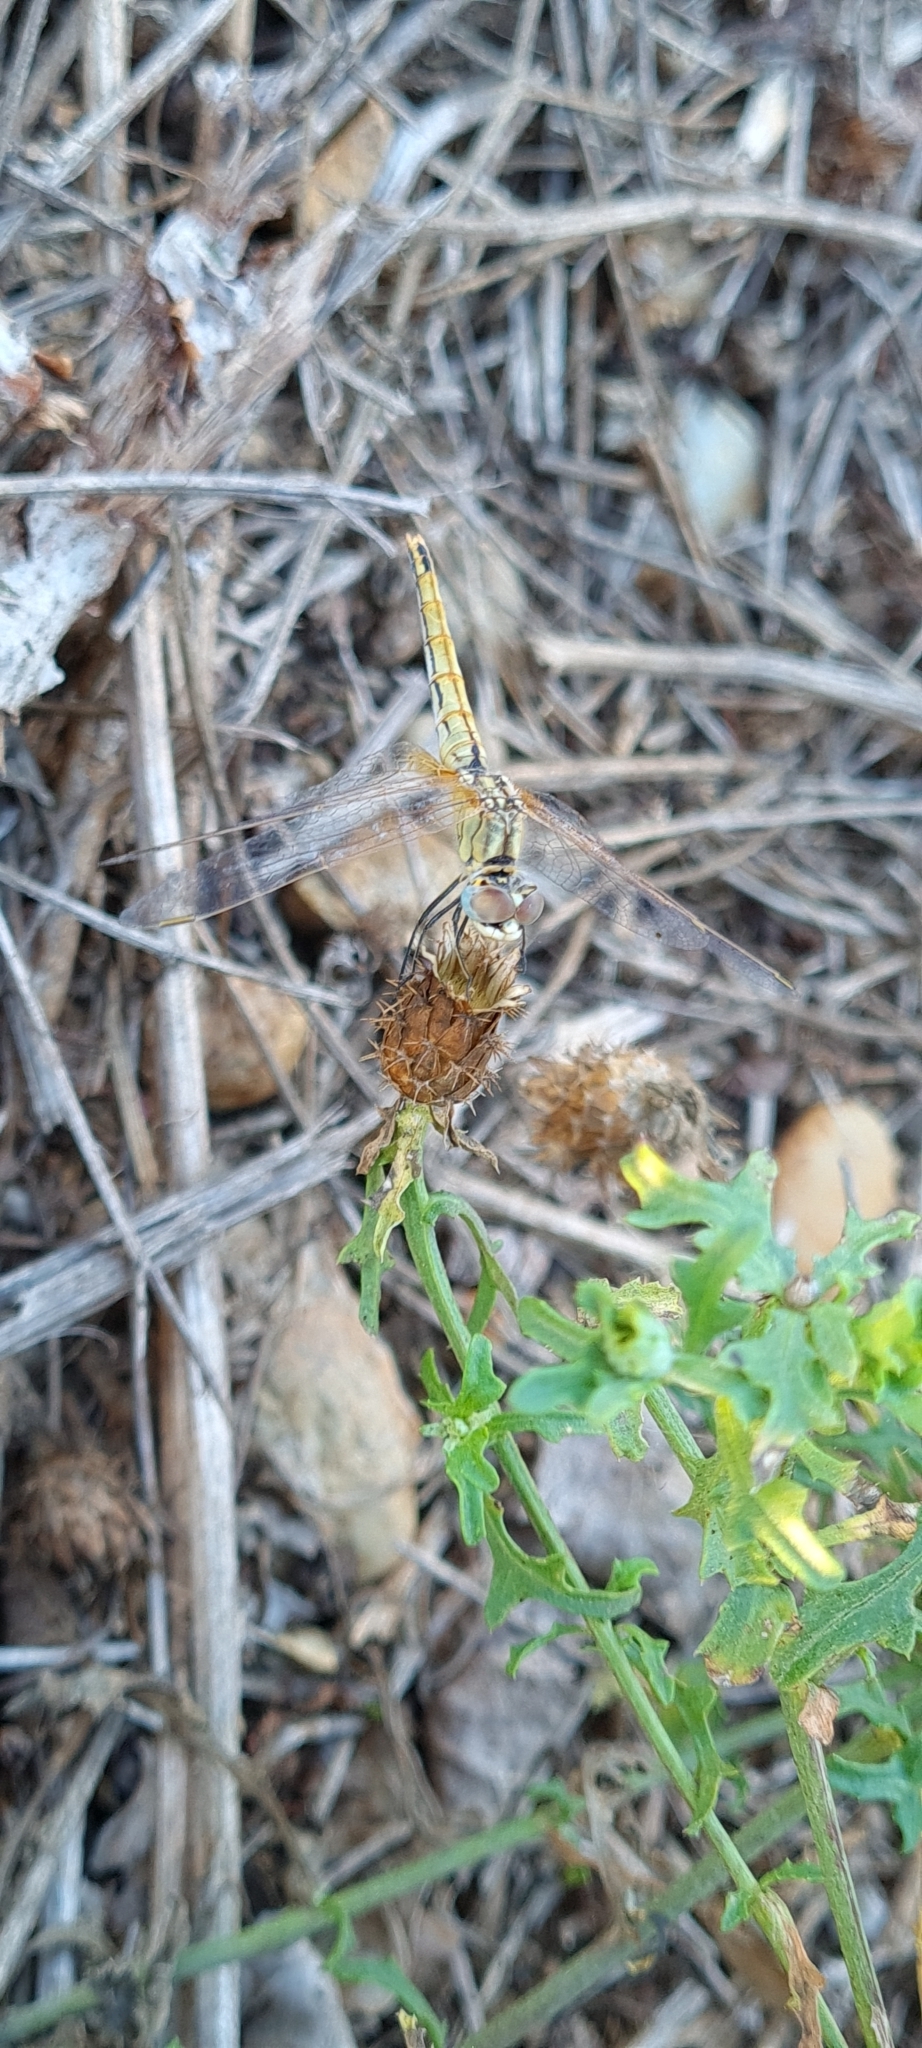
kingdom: Animalia
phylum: Arthropoda
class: Insecta
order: Odonata
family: Libellulidae
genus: Sympetrum
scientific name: Sympetrum fonscolombii
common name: Red-veined darter
